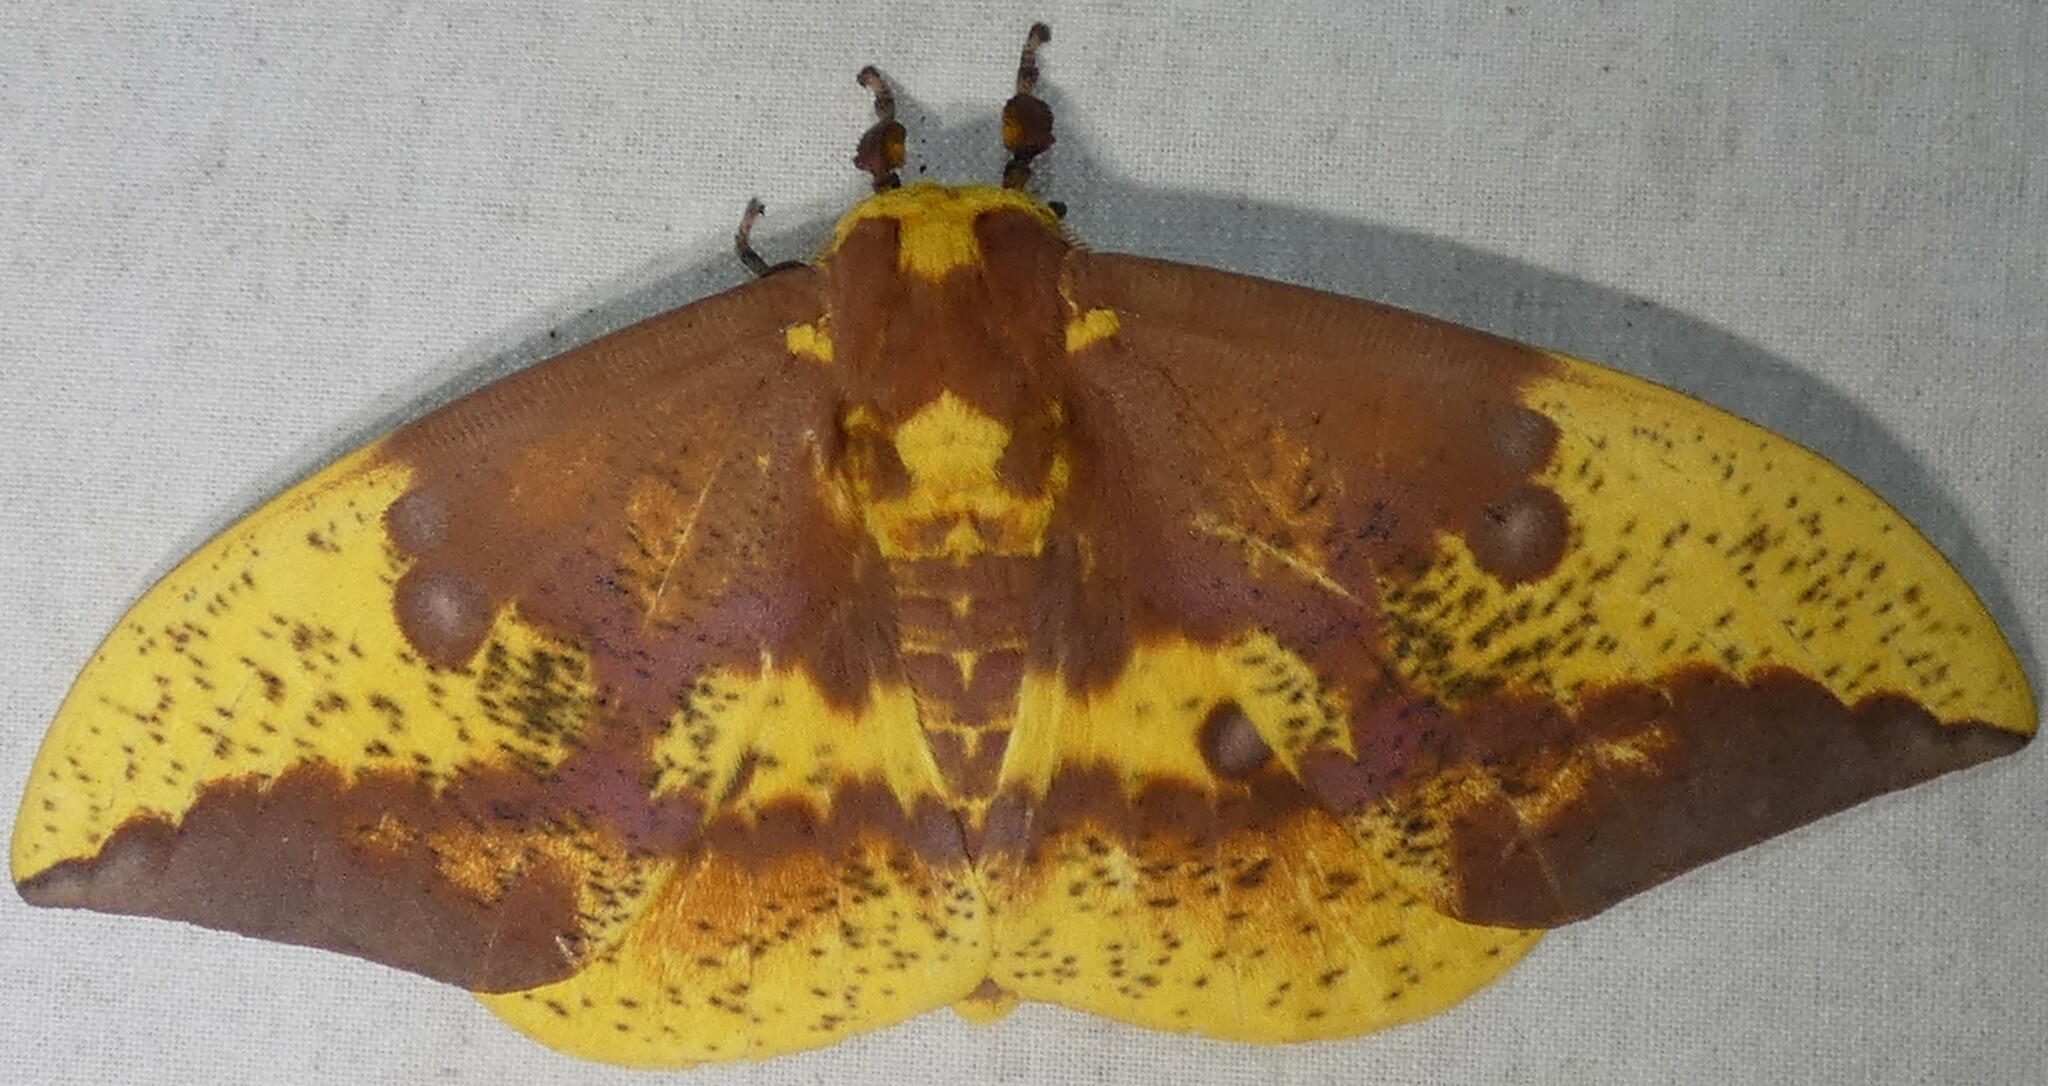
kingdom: Animalia
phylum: Arthropoda
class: Insecta
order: Lepidoptera
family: Saturniidae
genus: Eacles
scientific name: Eacles imperialis
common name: Imperial moth
